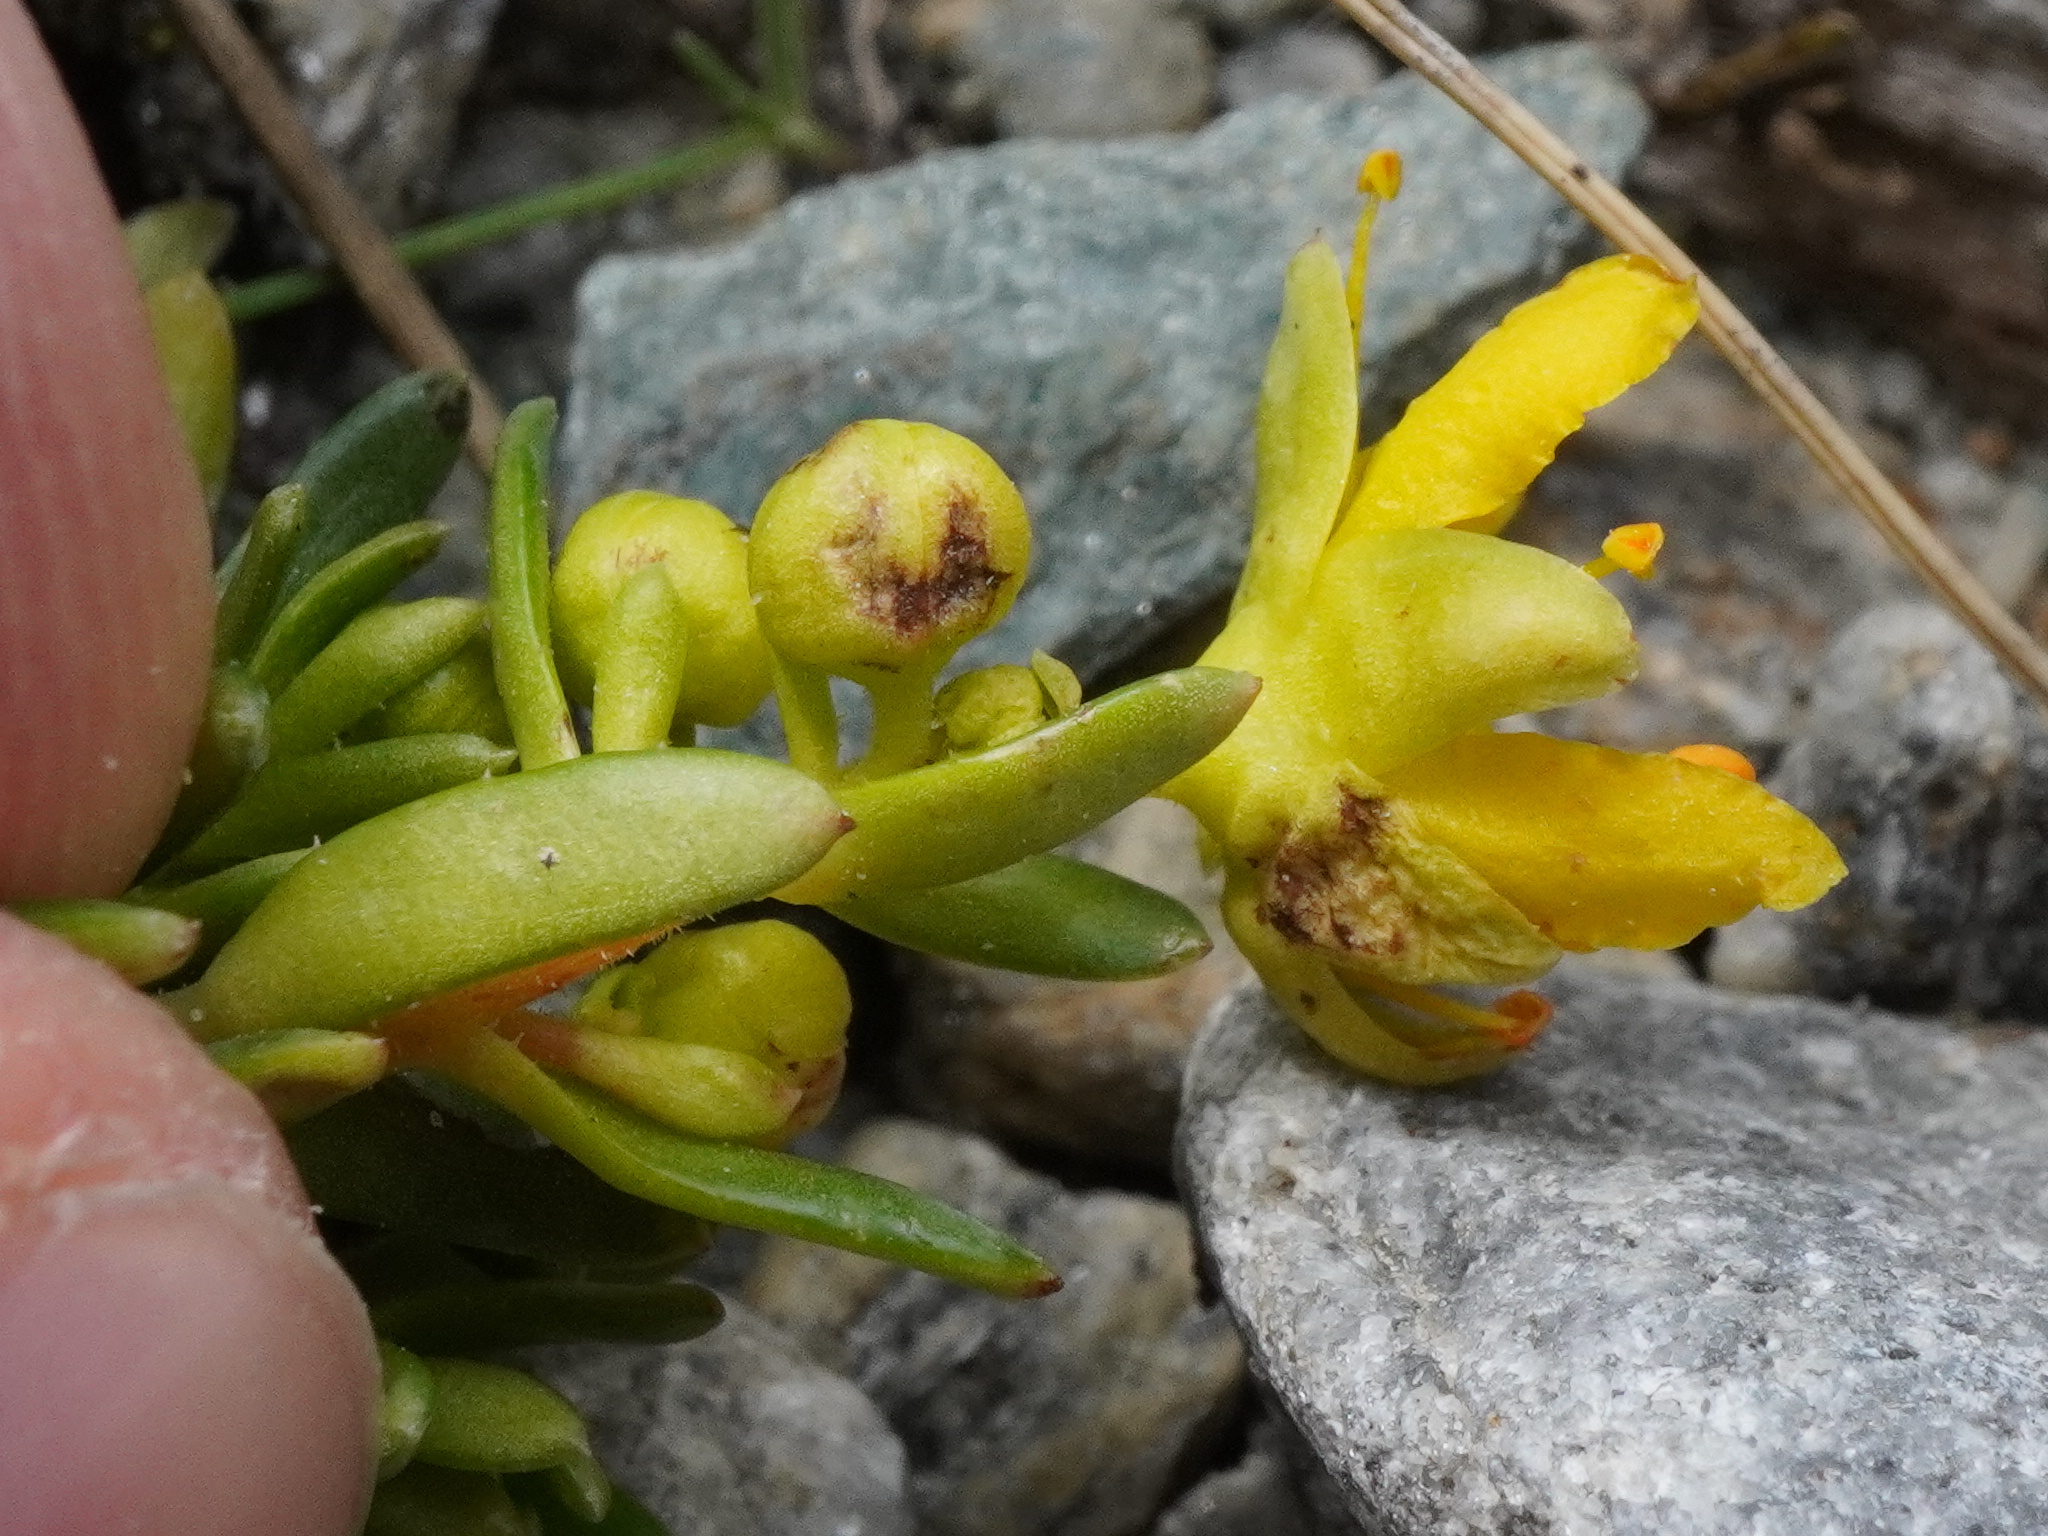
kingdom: Plantae
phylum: Tracheophyta
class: Magnoliopsida
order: Saxifragales
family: Saxifragaceae
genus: Saxifraga
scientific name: Saxifraga aizoides
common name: Yellow mountain saxifrage
